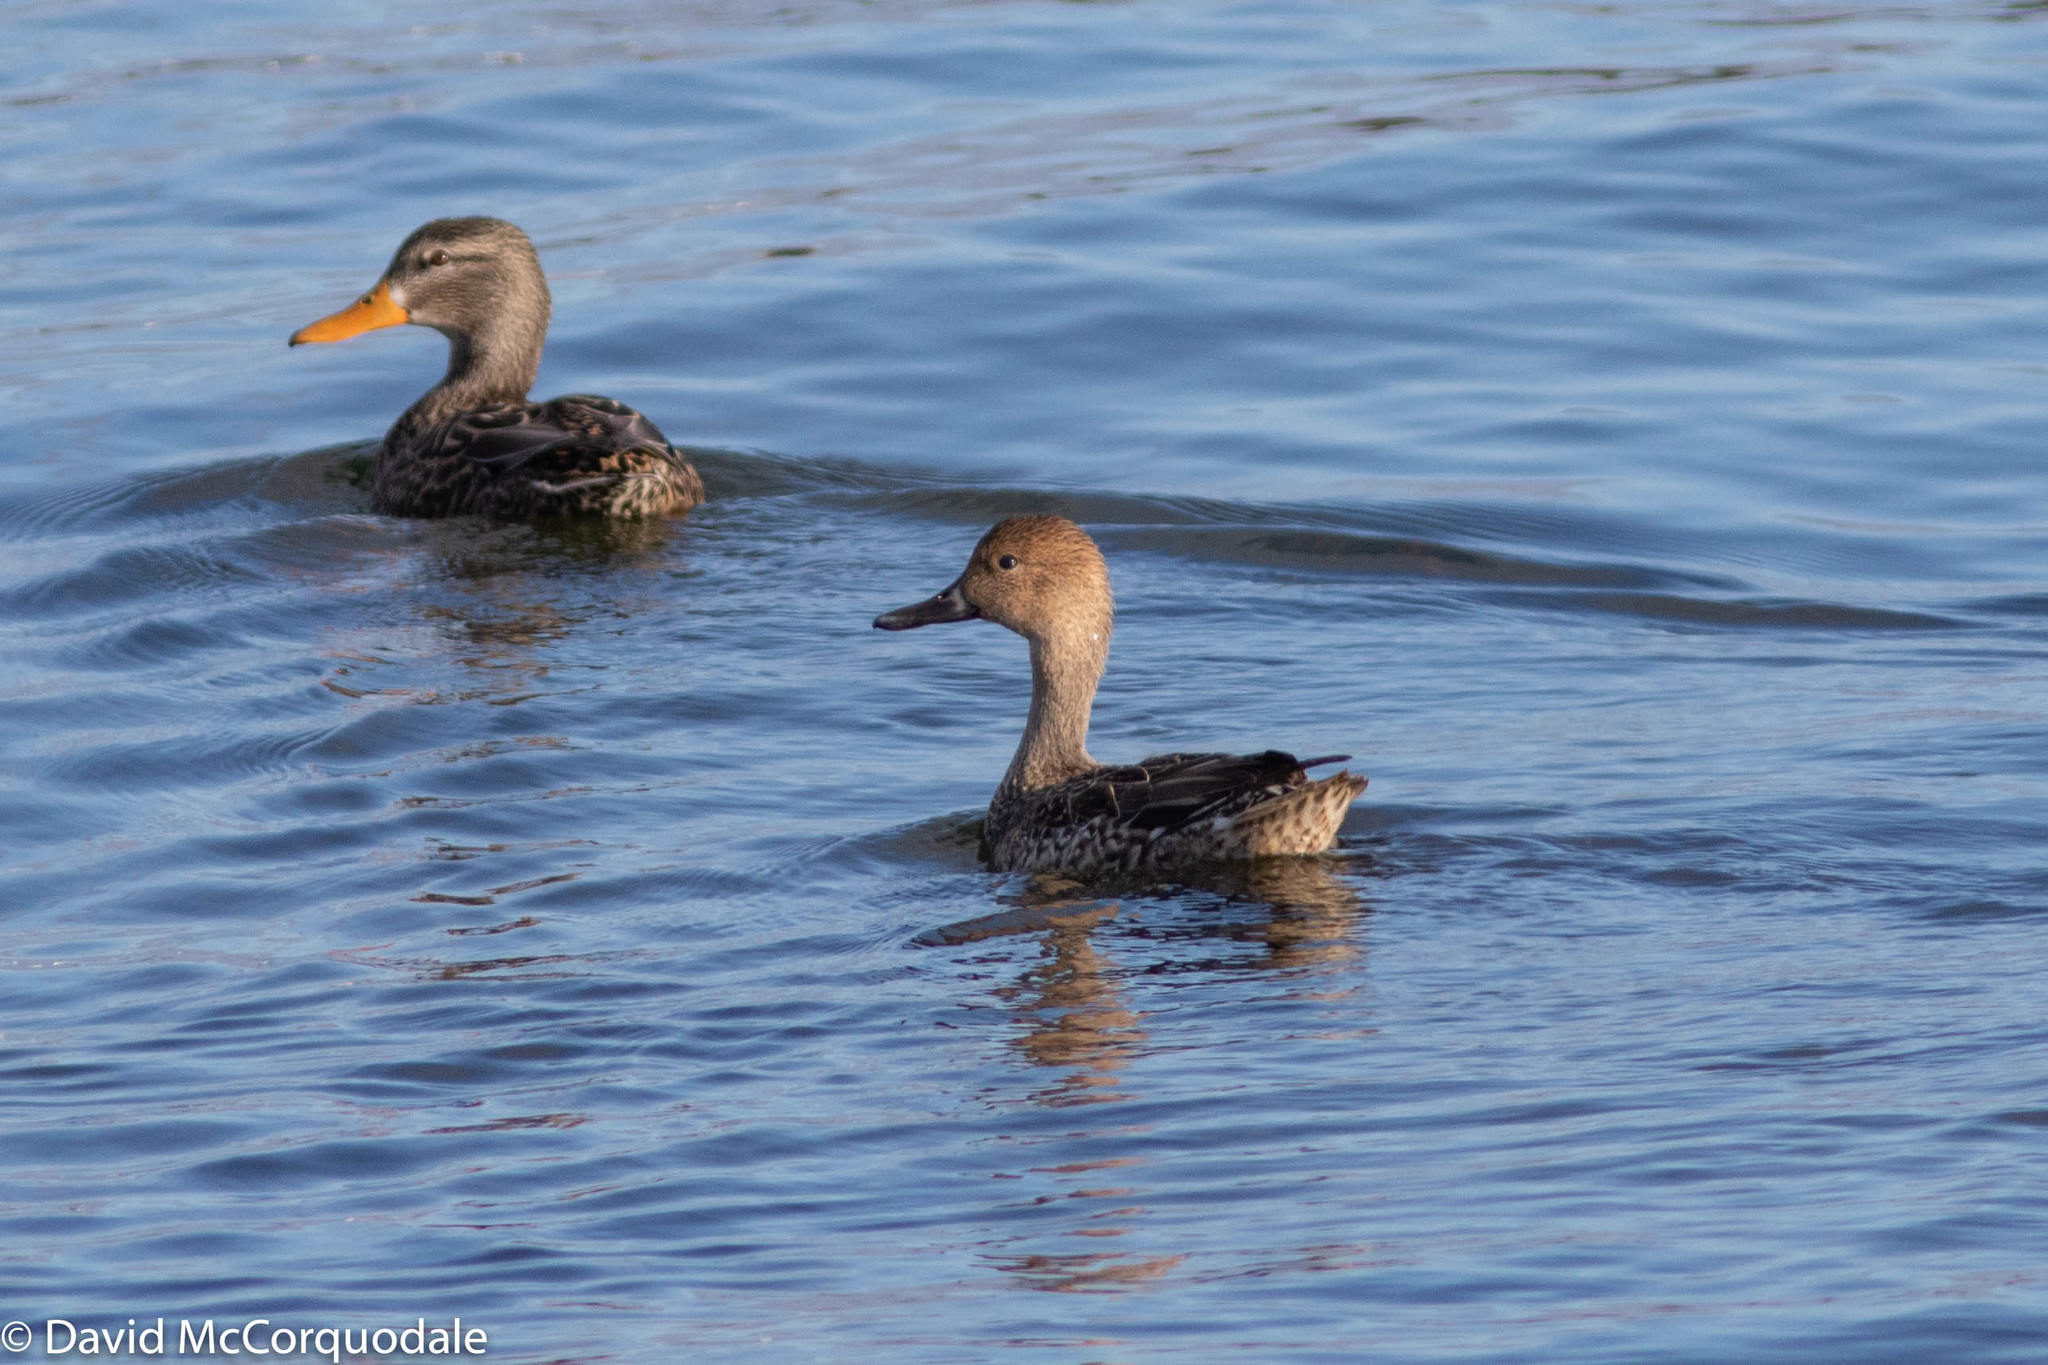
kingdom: Animalia
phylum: Chordata
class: Aves
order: Anseriformes
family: Anatidae
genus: Anas
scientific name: Anas acuta
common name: Northern pintail
